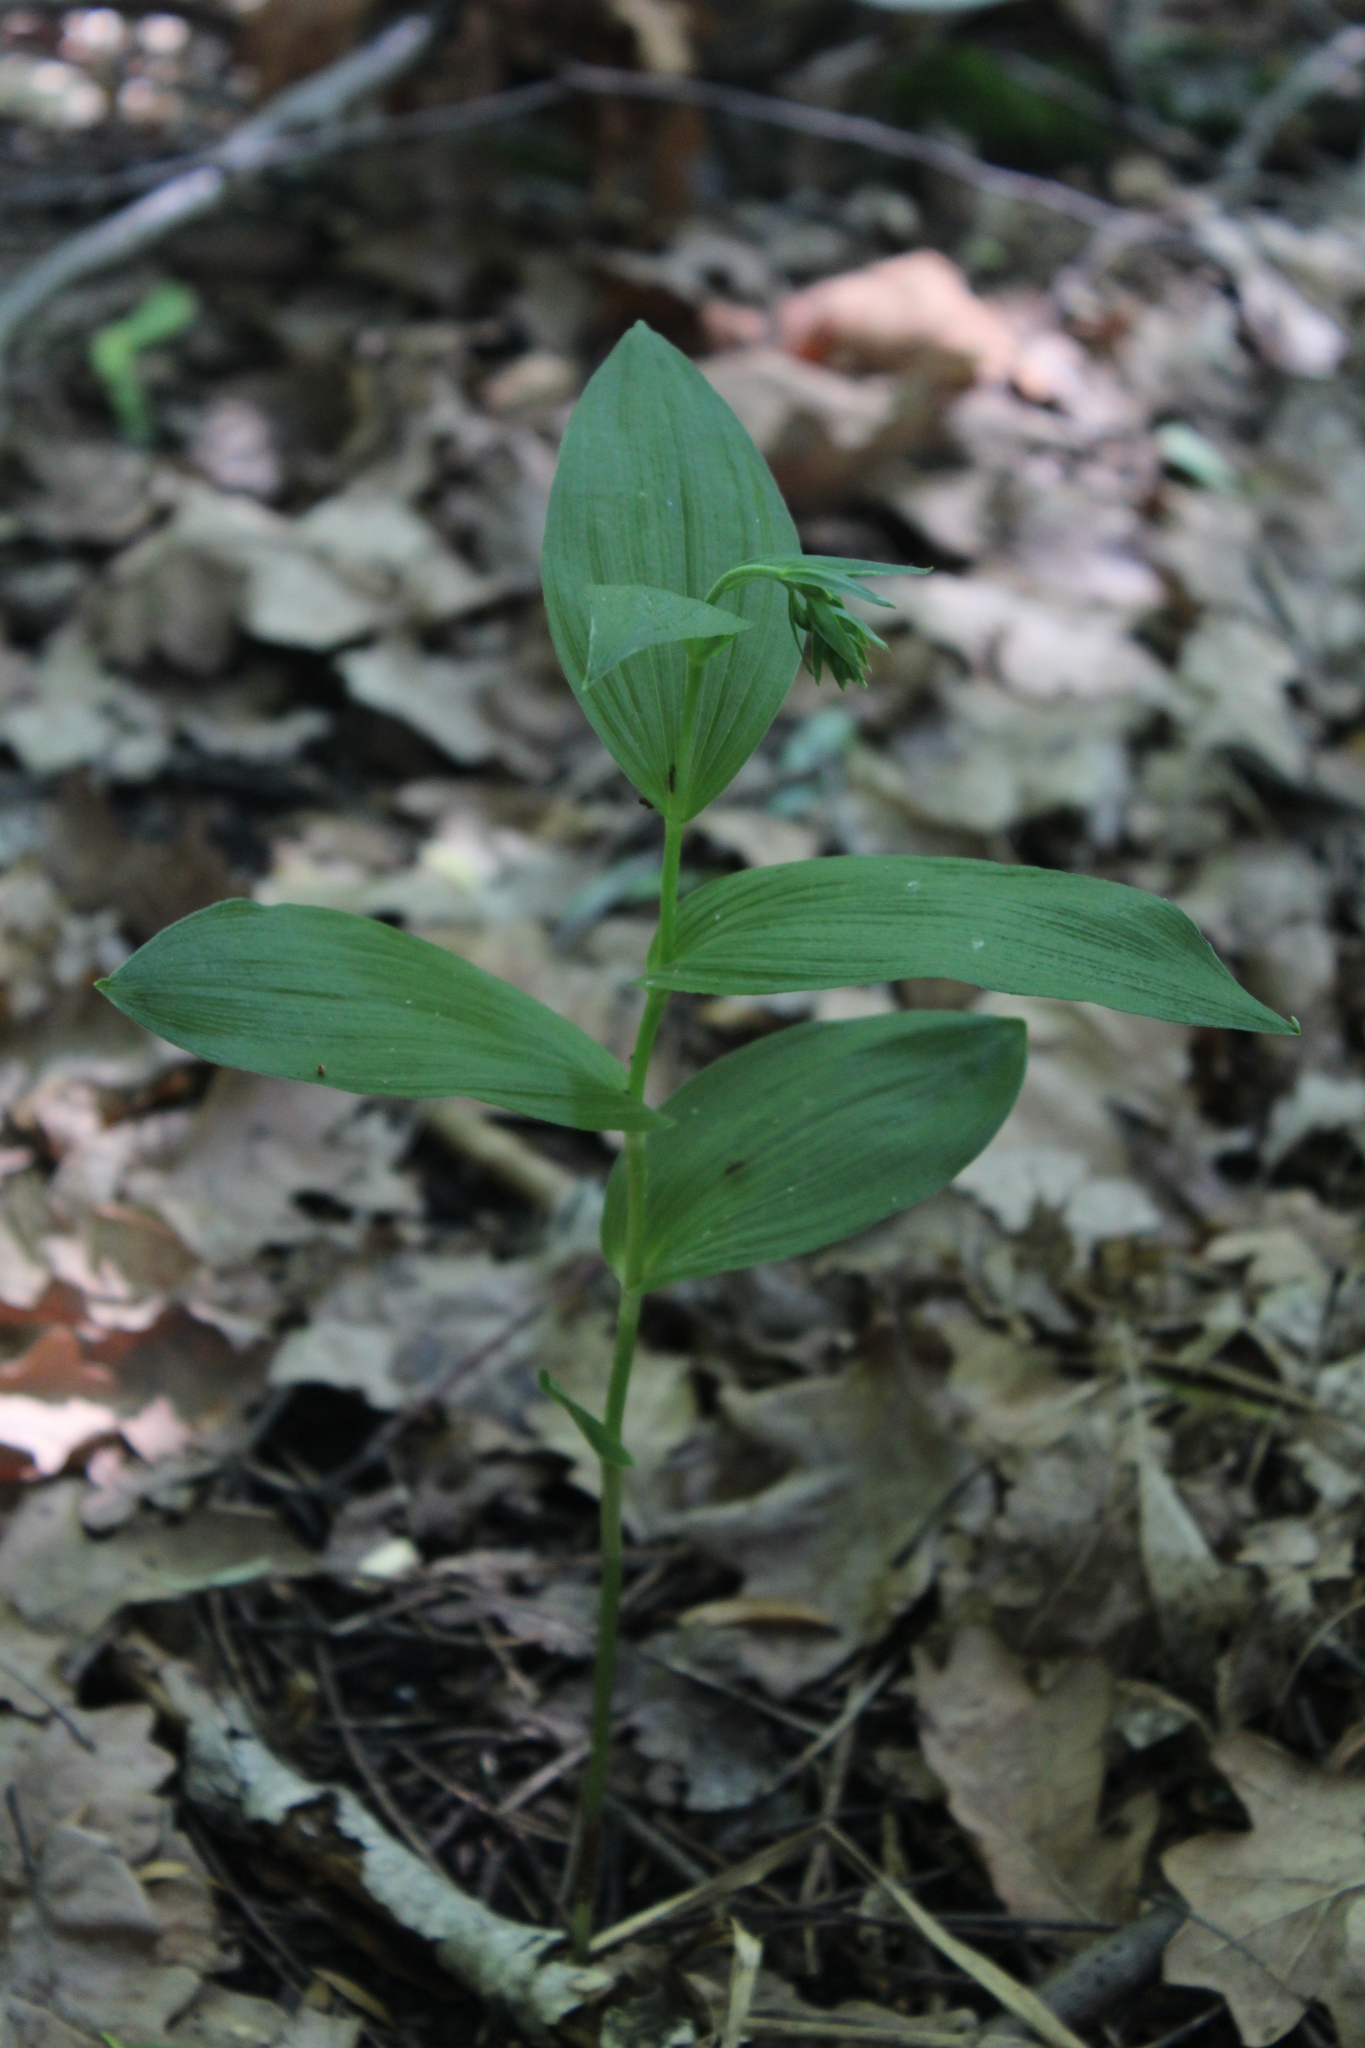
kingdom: Plantae
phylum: Tracheophyta
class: Liliopsida
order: Asparagales
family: Orchidaceae
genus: Epipactis
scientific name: Epipactis helleborine
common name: Broad-leaved helleborine
